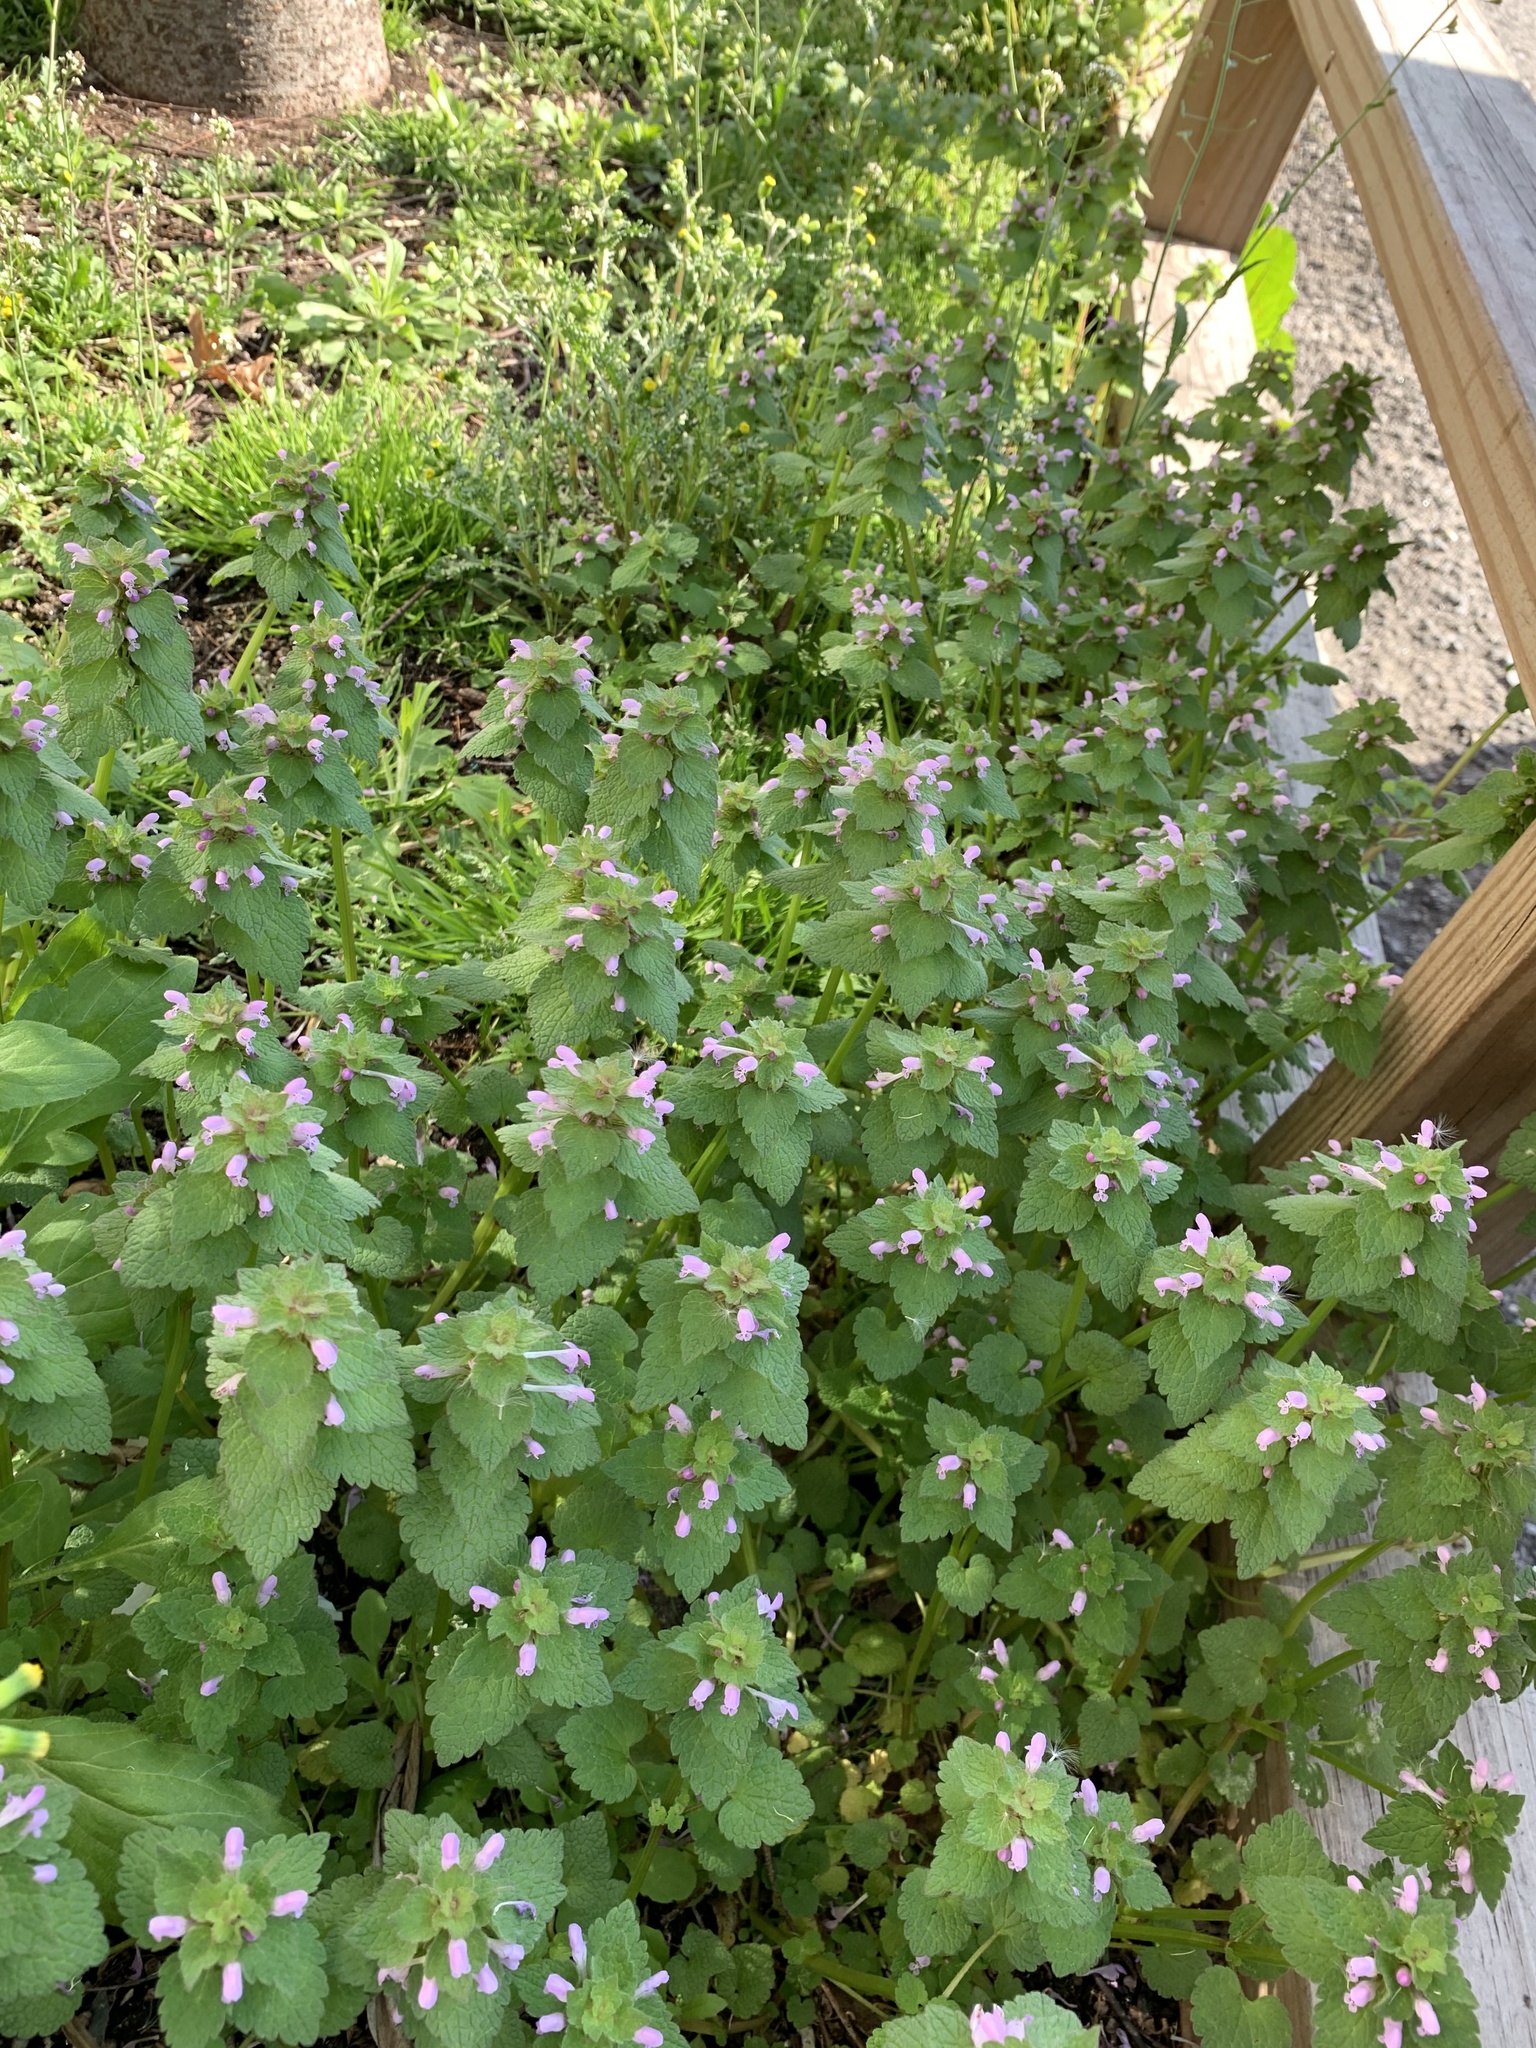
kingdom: Plantae
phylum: Tracheophyta
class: Magnoliopsida
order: Lamiales
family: Lamiaceae
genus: Lamium
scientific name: Lamium purpureum
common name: Red dead-nettle
